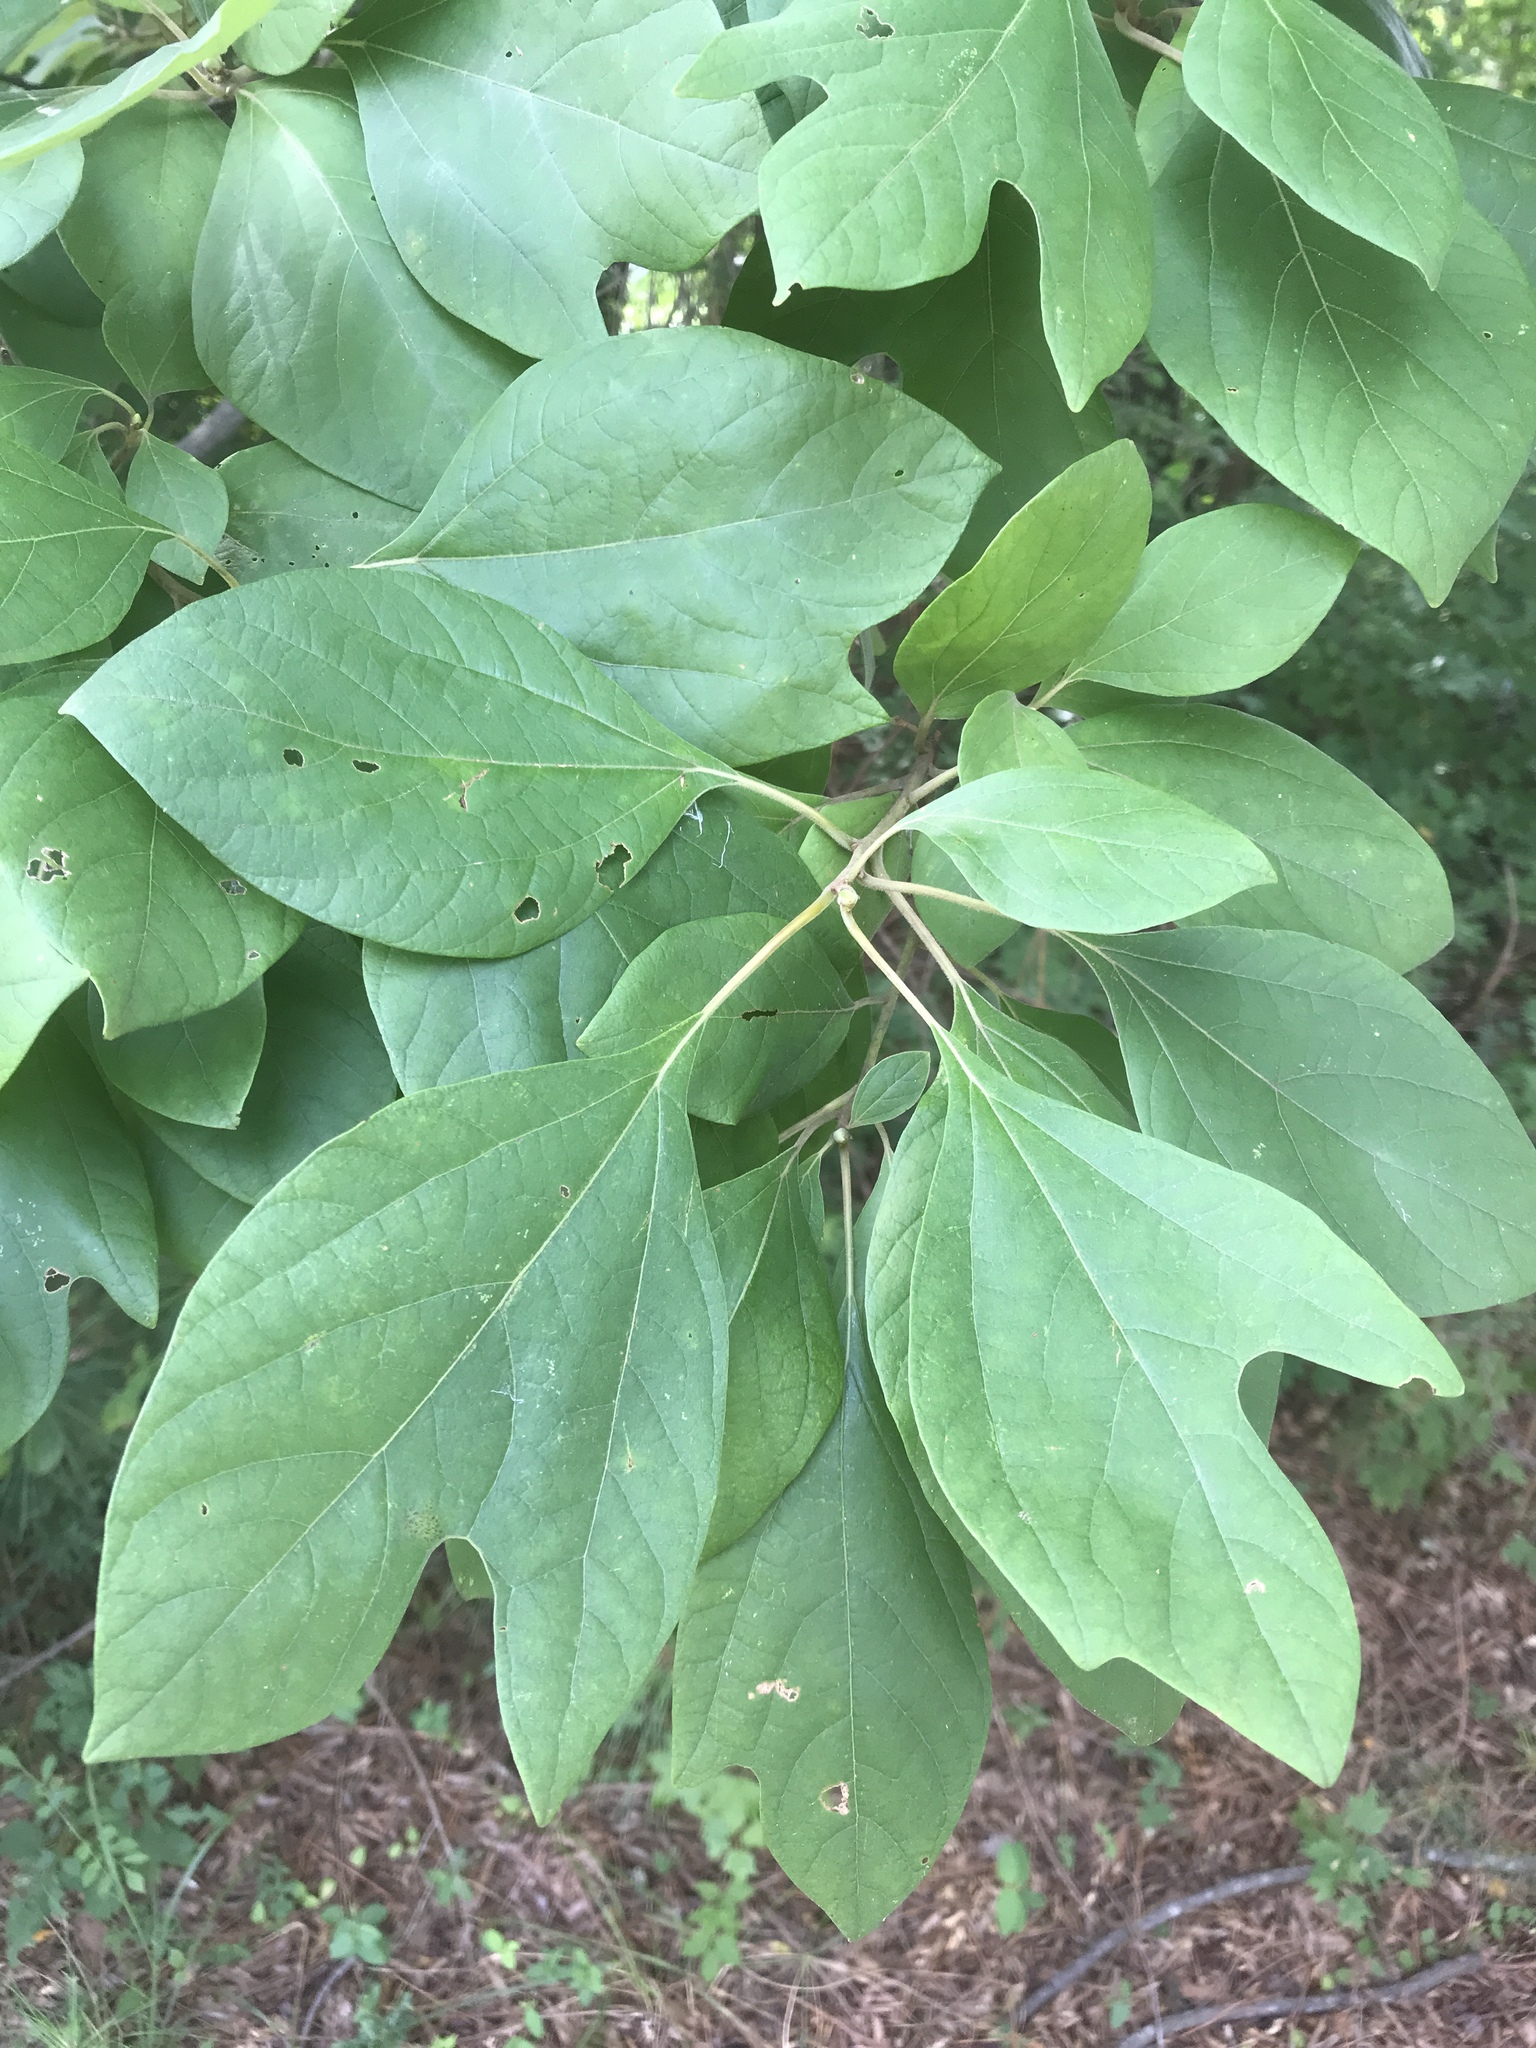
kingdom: Plantae
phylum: Tracheophyta
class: Magnoliopsida
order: Laurales
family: Lauraceae
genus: Sassafras
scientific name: Sassafras albidum
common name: Sassafras
